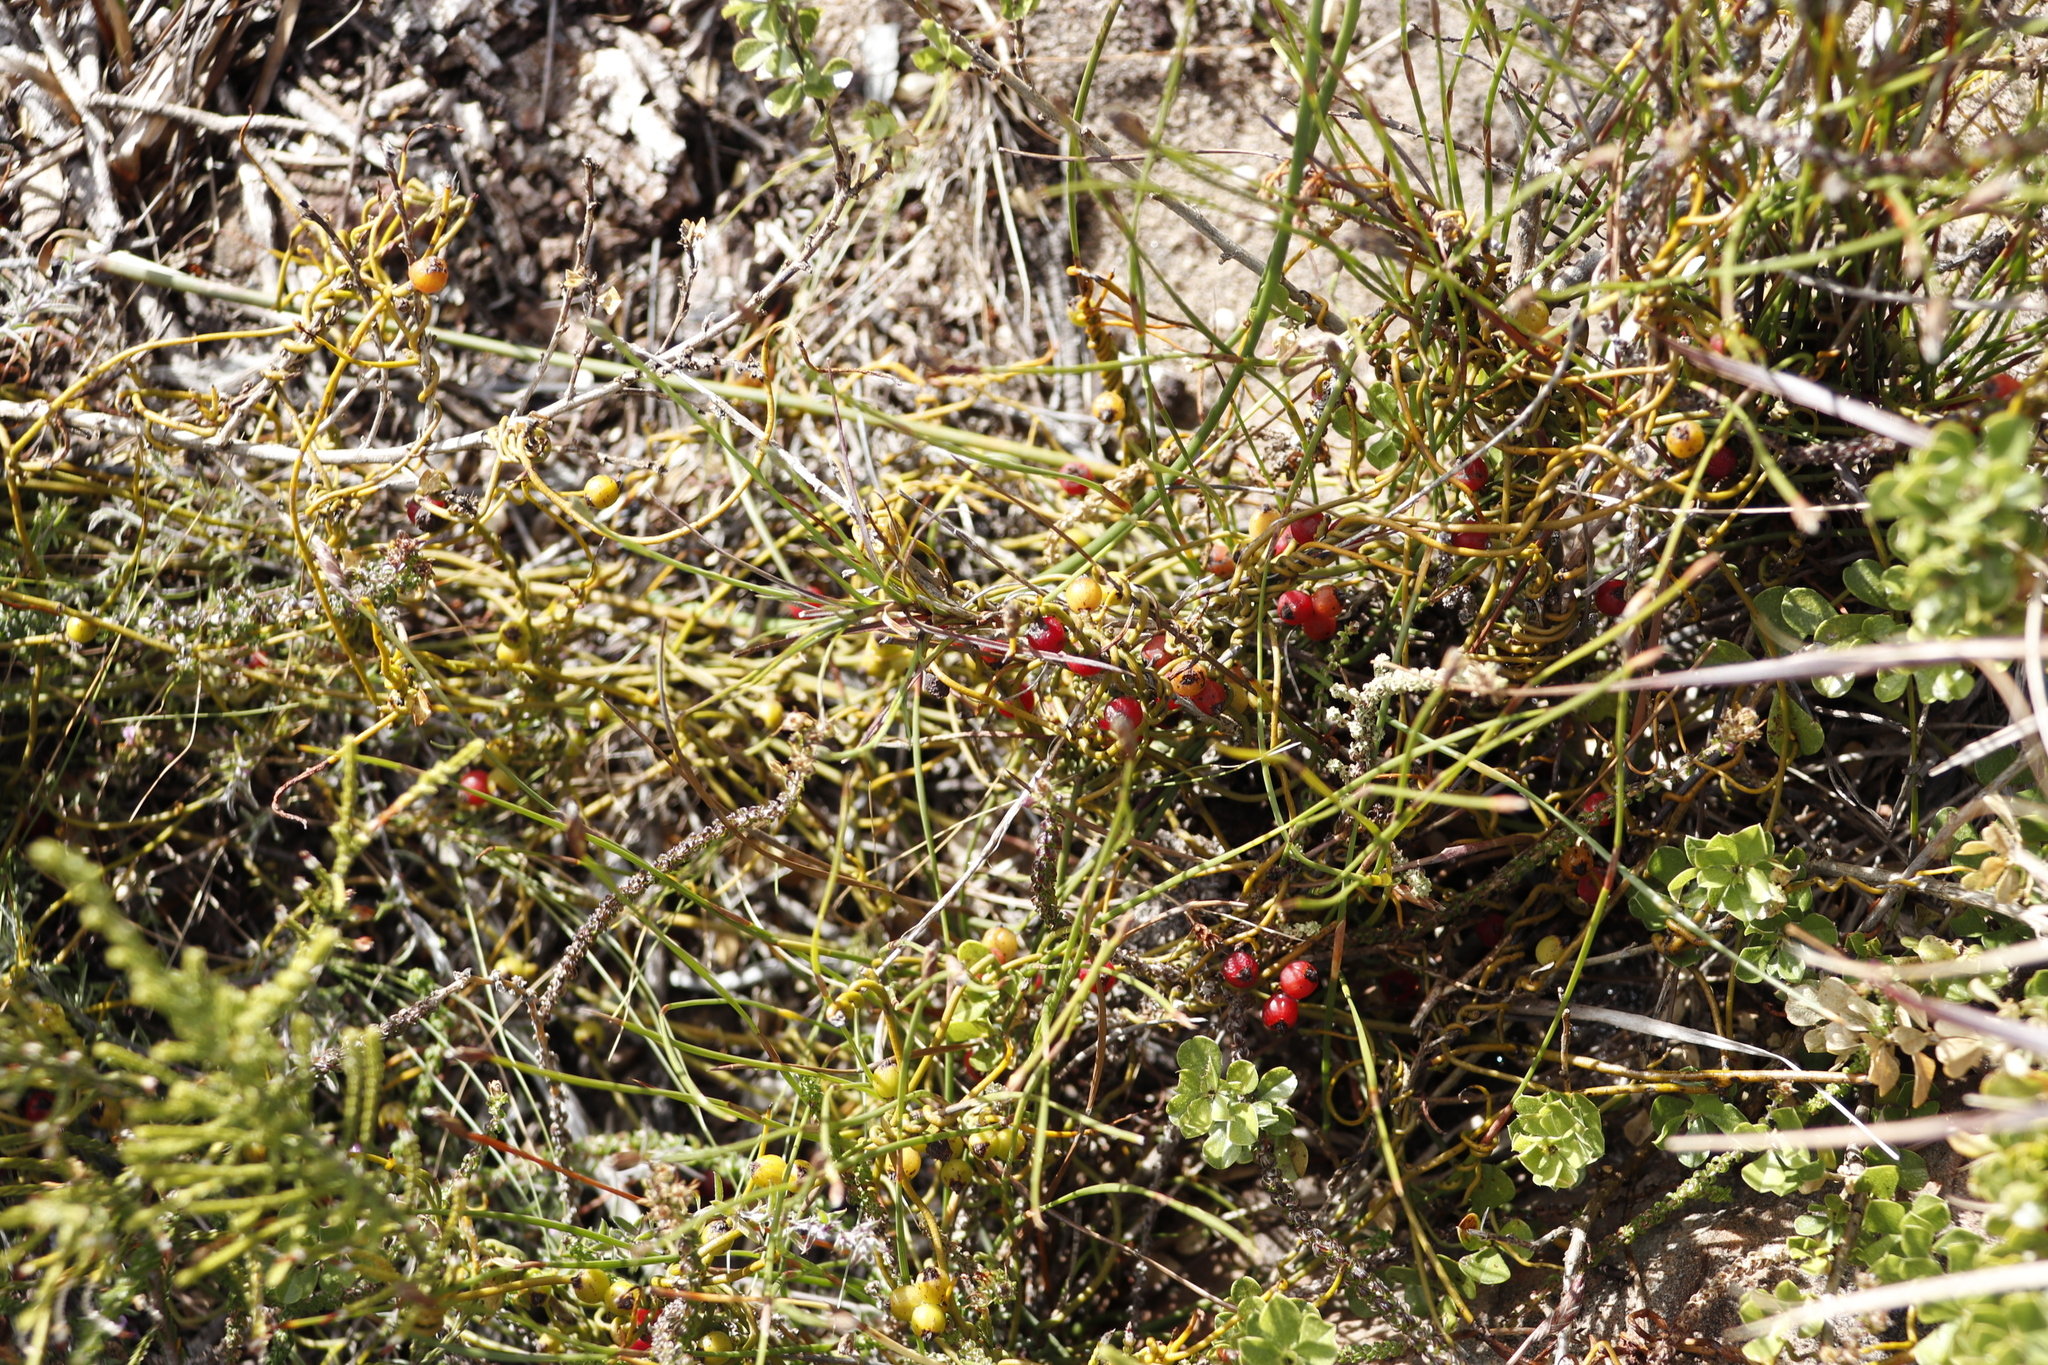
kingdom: Plantae
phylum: Tracheophyta
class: Magnoliopsida
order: Laurales
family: Lauraceae
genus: Cassytha
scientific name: Cassytha ciliolata
